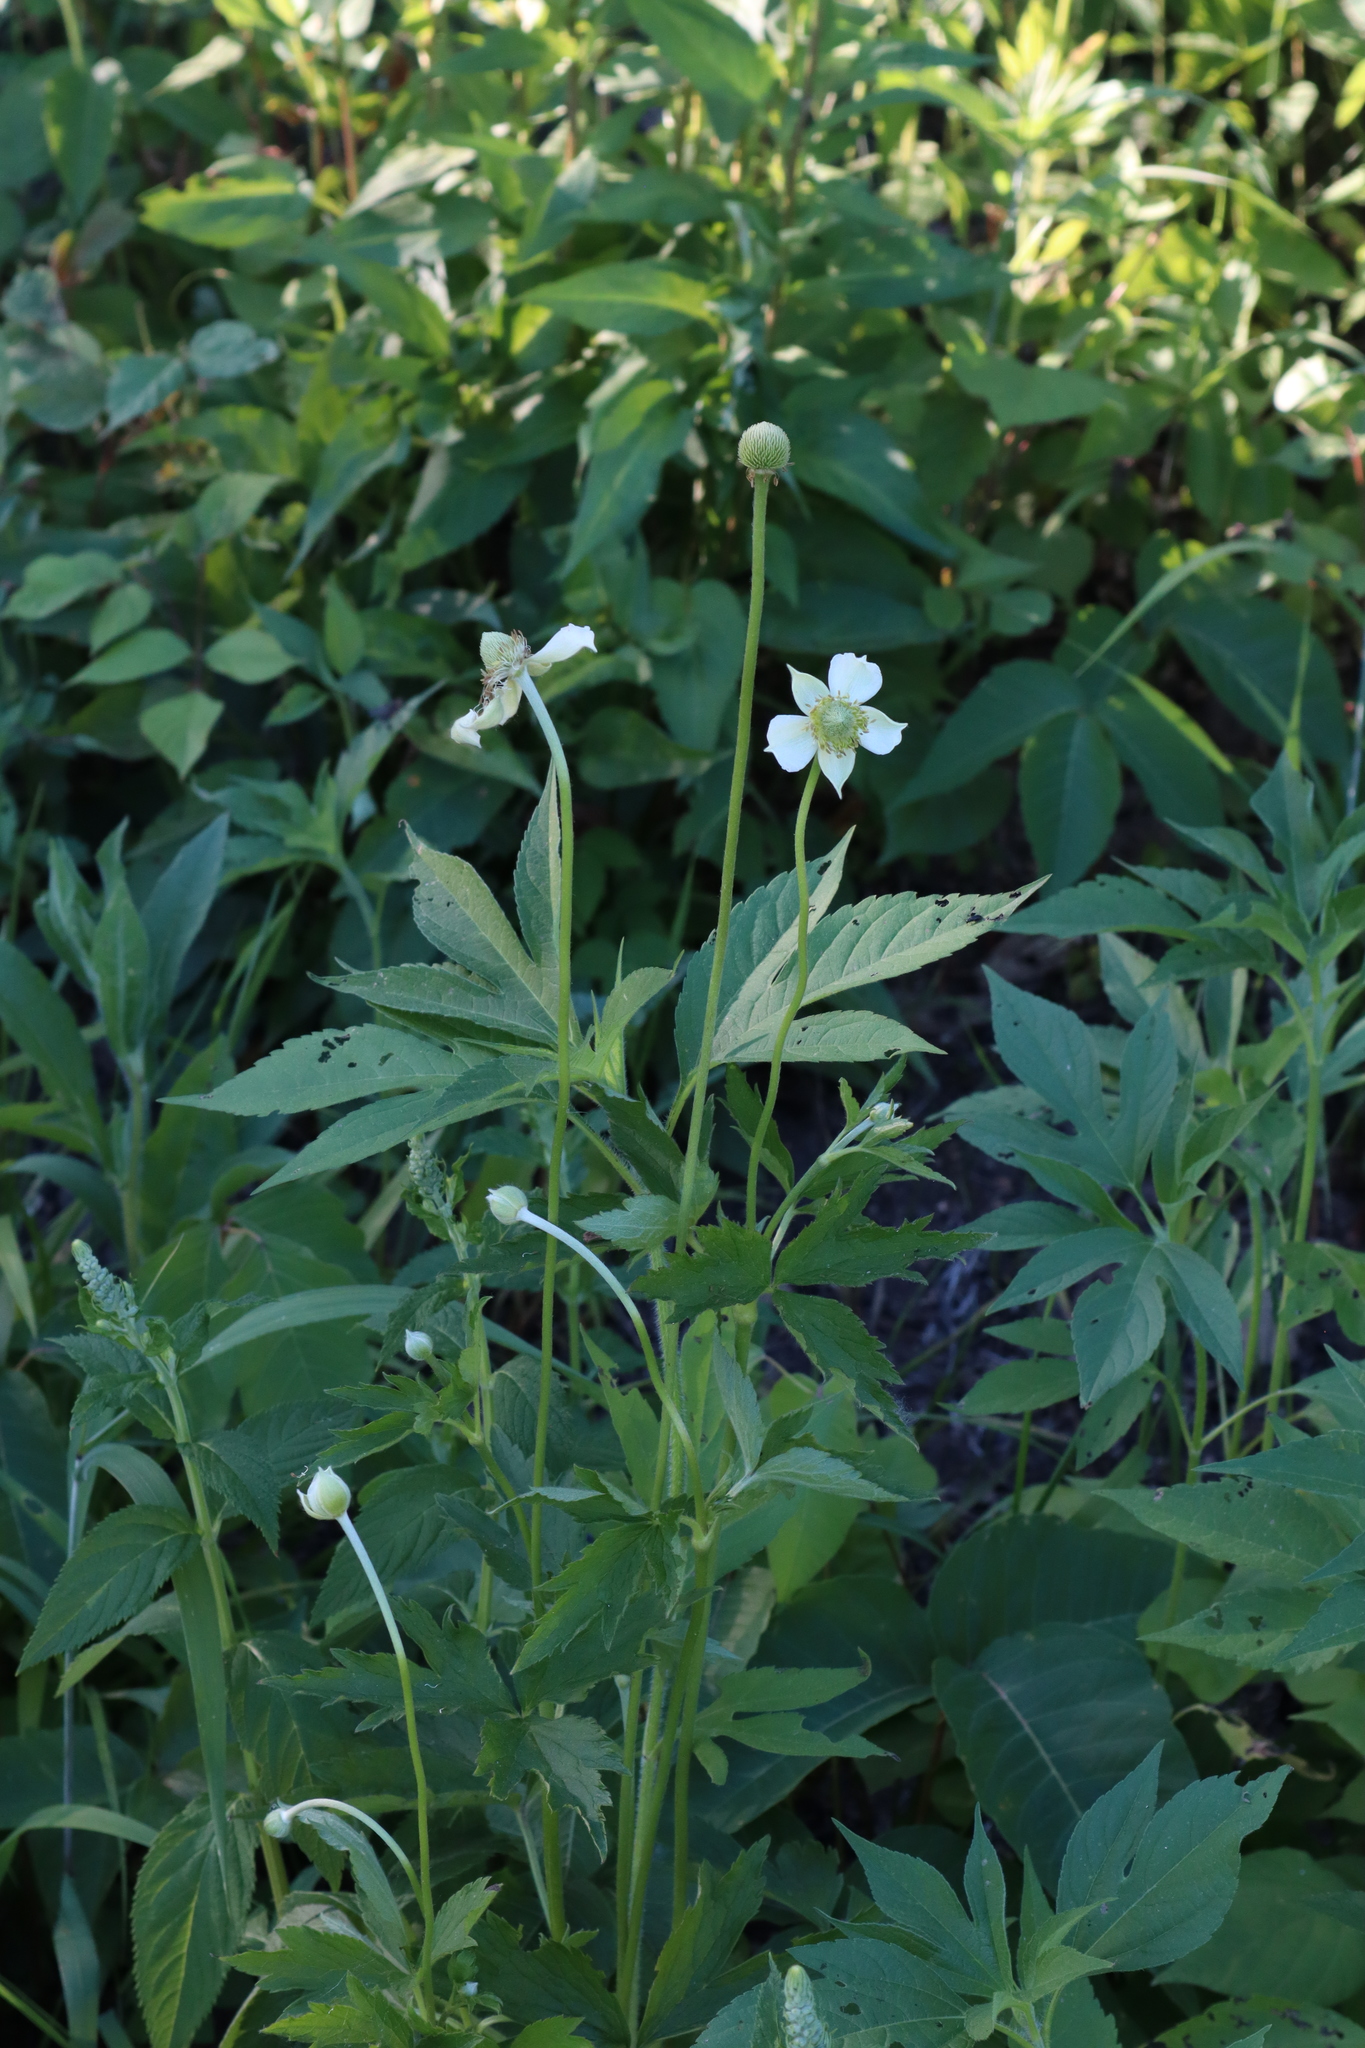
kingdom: Plantae
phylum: Tracheophyta
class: Magnoliopsida
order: Ranunculales
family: Ranunculaceae
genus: Anemone
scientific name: Anemone virginiana
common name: Tall anemone
